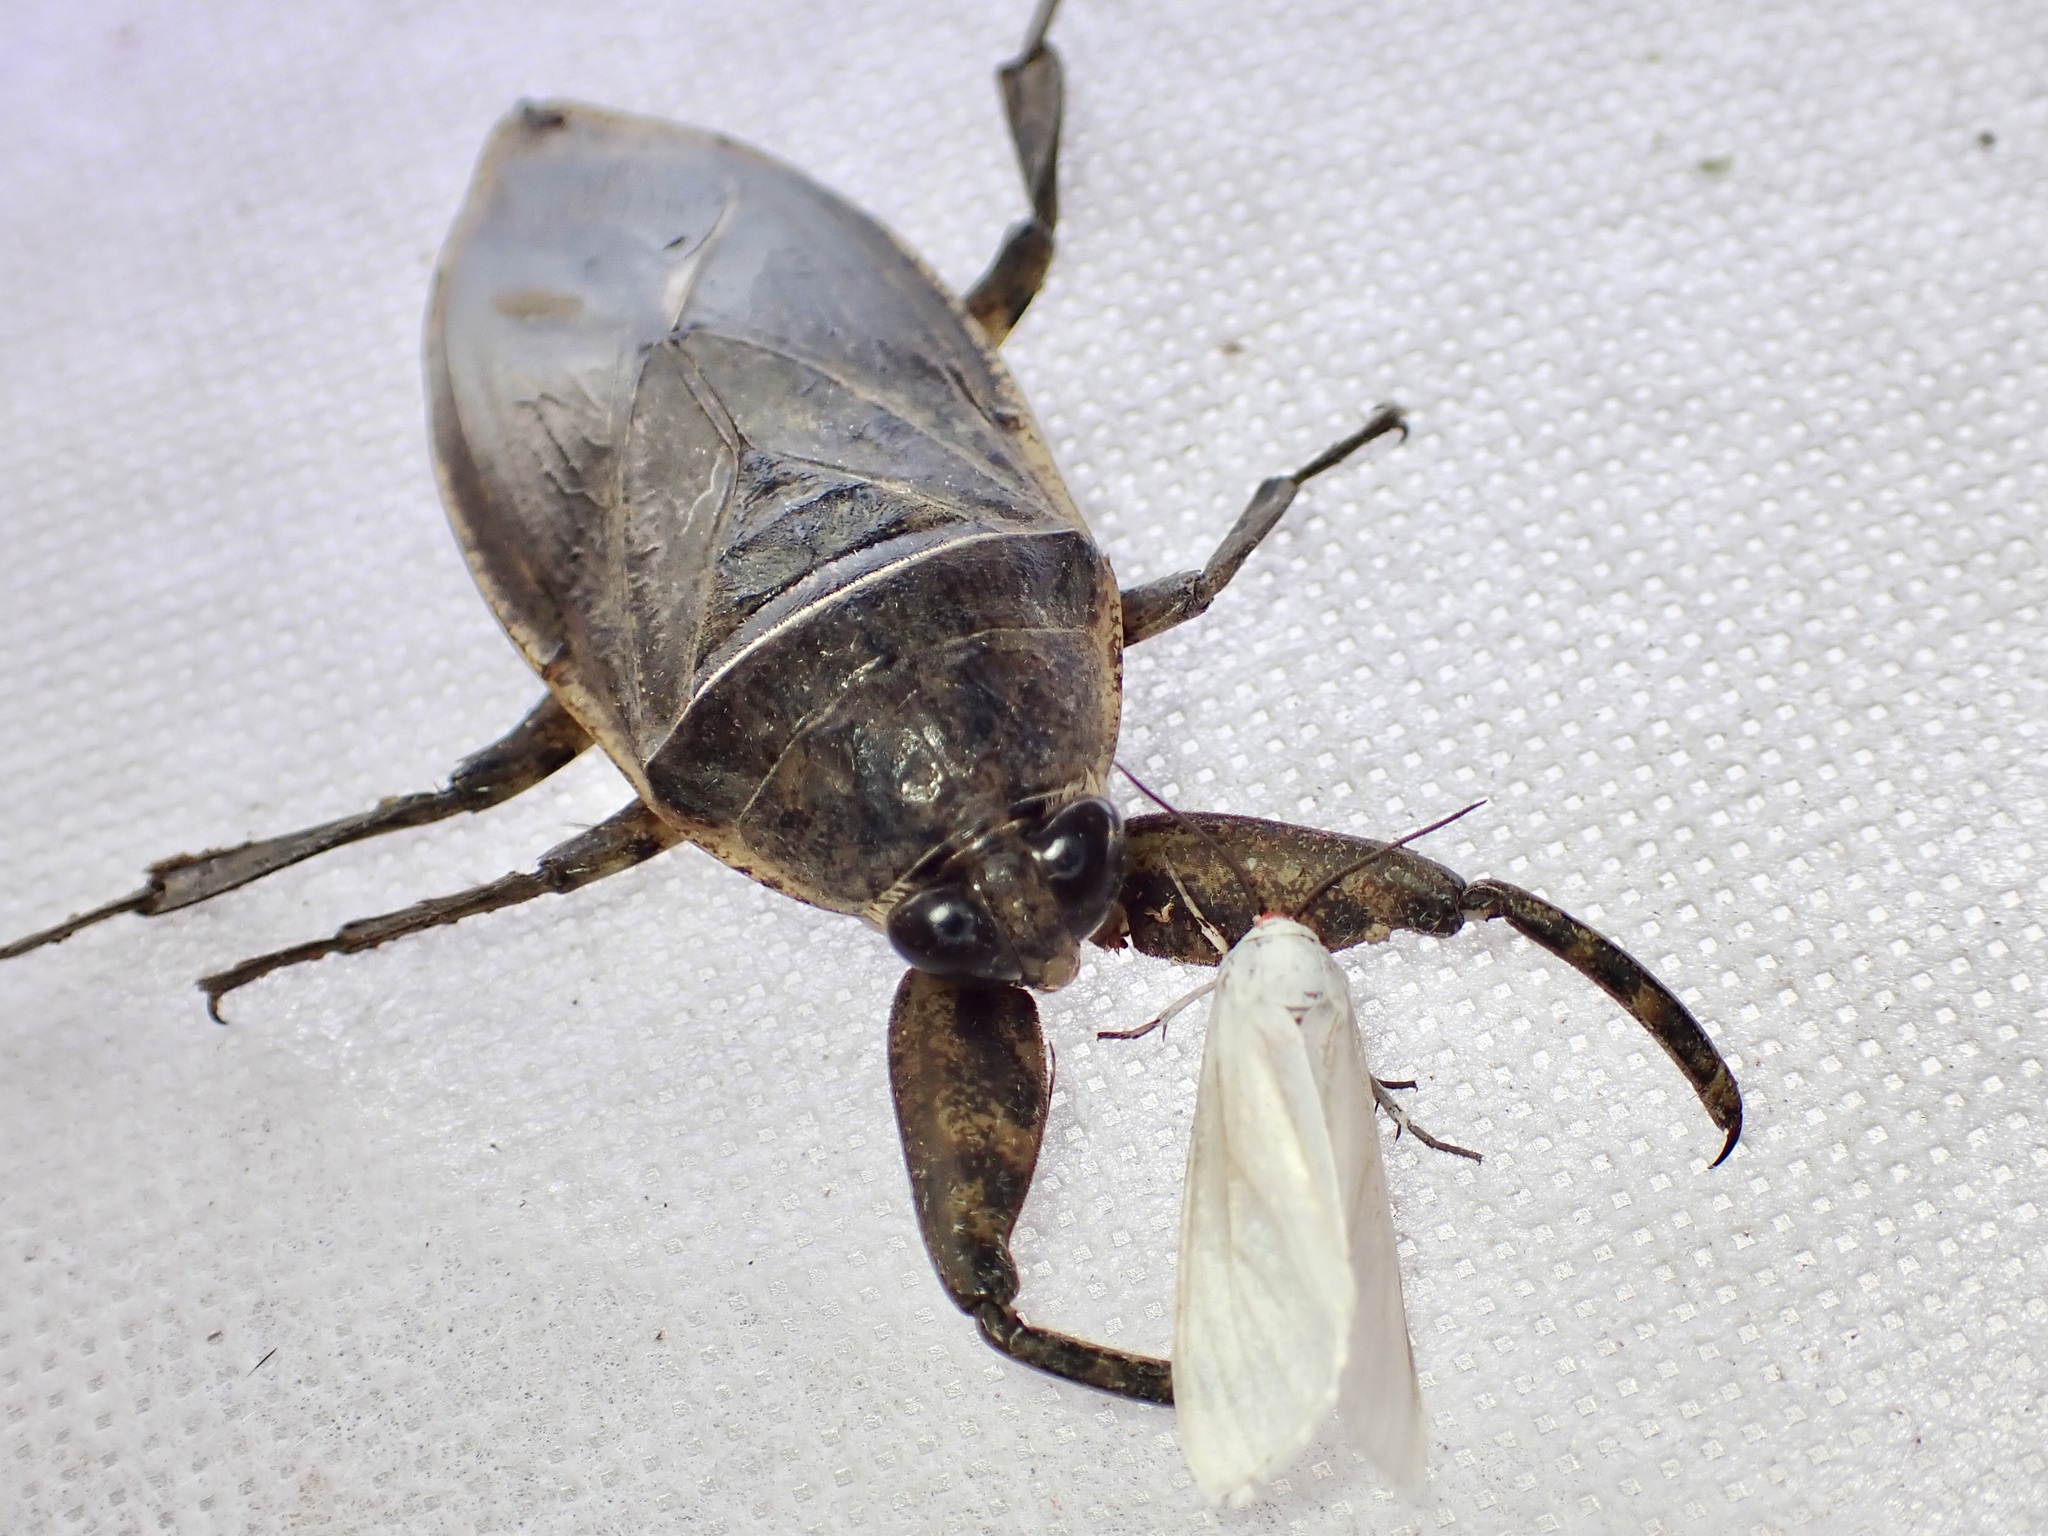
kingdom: Animalia
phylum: Arthropoda
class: Insecta
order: Hemiptera
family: Belostomatidae
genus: Lethocerus
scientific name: Lethocerus medius
